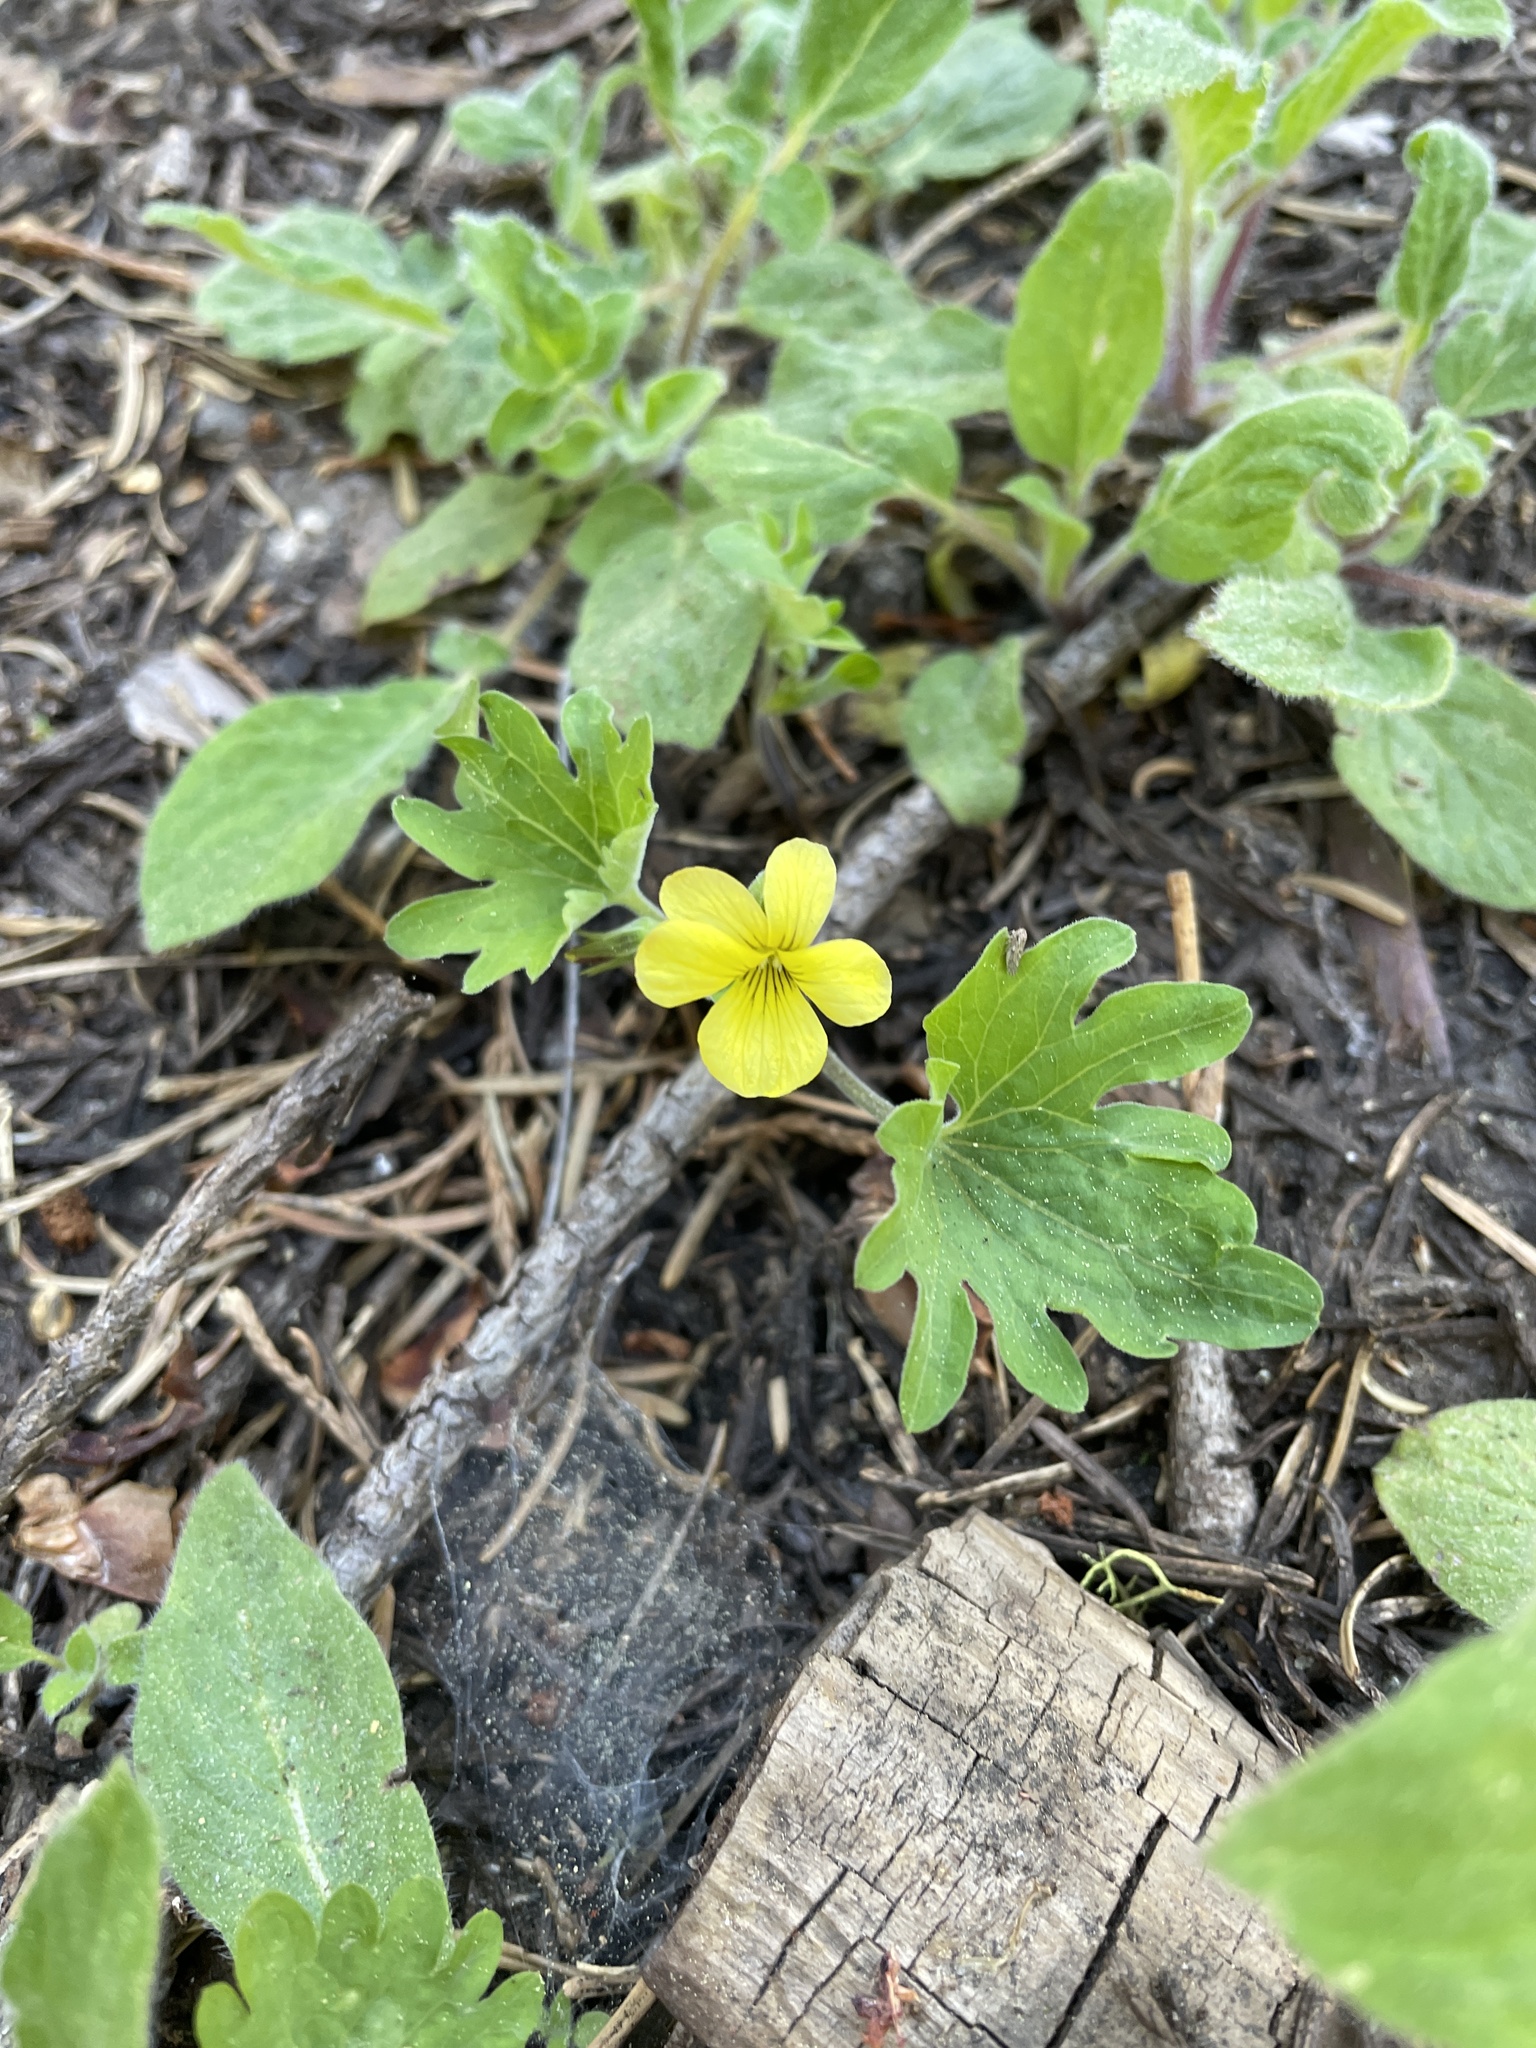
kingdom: Plantae
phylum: Tracheophyta
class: Magnoliopsida
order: Malpighiales
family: Violaceae
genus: Viola
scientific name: Viola lobata
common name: Pine violet
